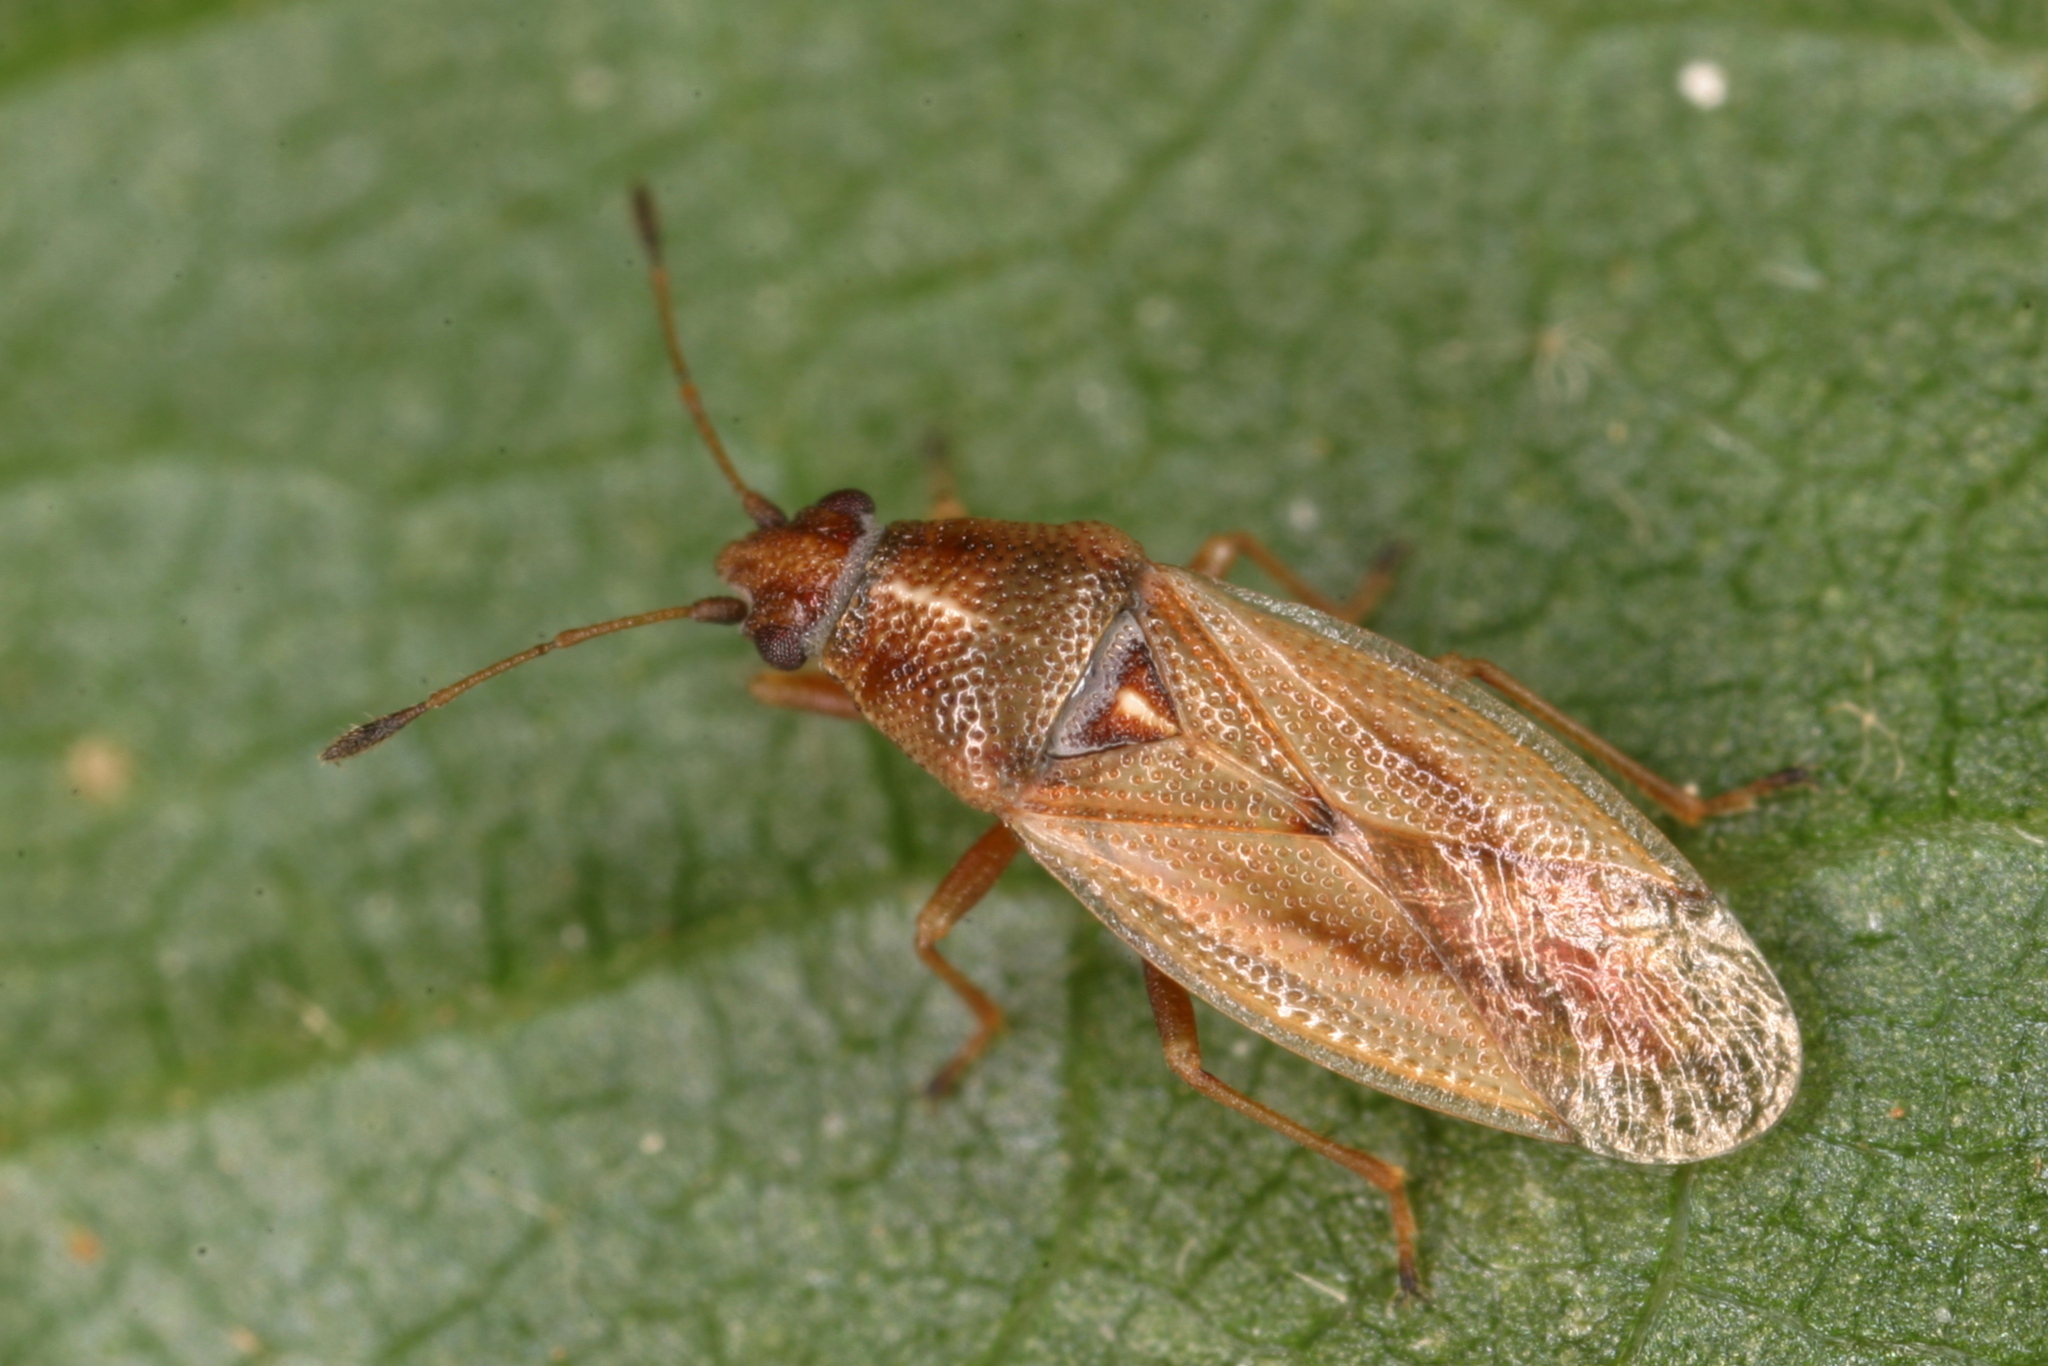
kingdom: Animalia
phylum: Arthropoda
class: Insecta
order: Hemiptera
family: Cymidae
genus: Cymus
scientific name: Cymus glandicolor
